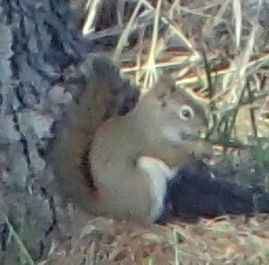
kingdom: Animalia
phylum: Chordata
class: Mammalia
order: Rodentia
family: Sciuridae
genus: Tamiasciurus
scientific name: Tamiasciurus hudsonicus
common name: Red squirrel
